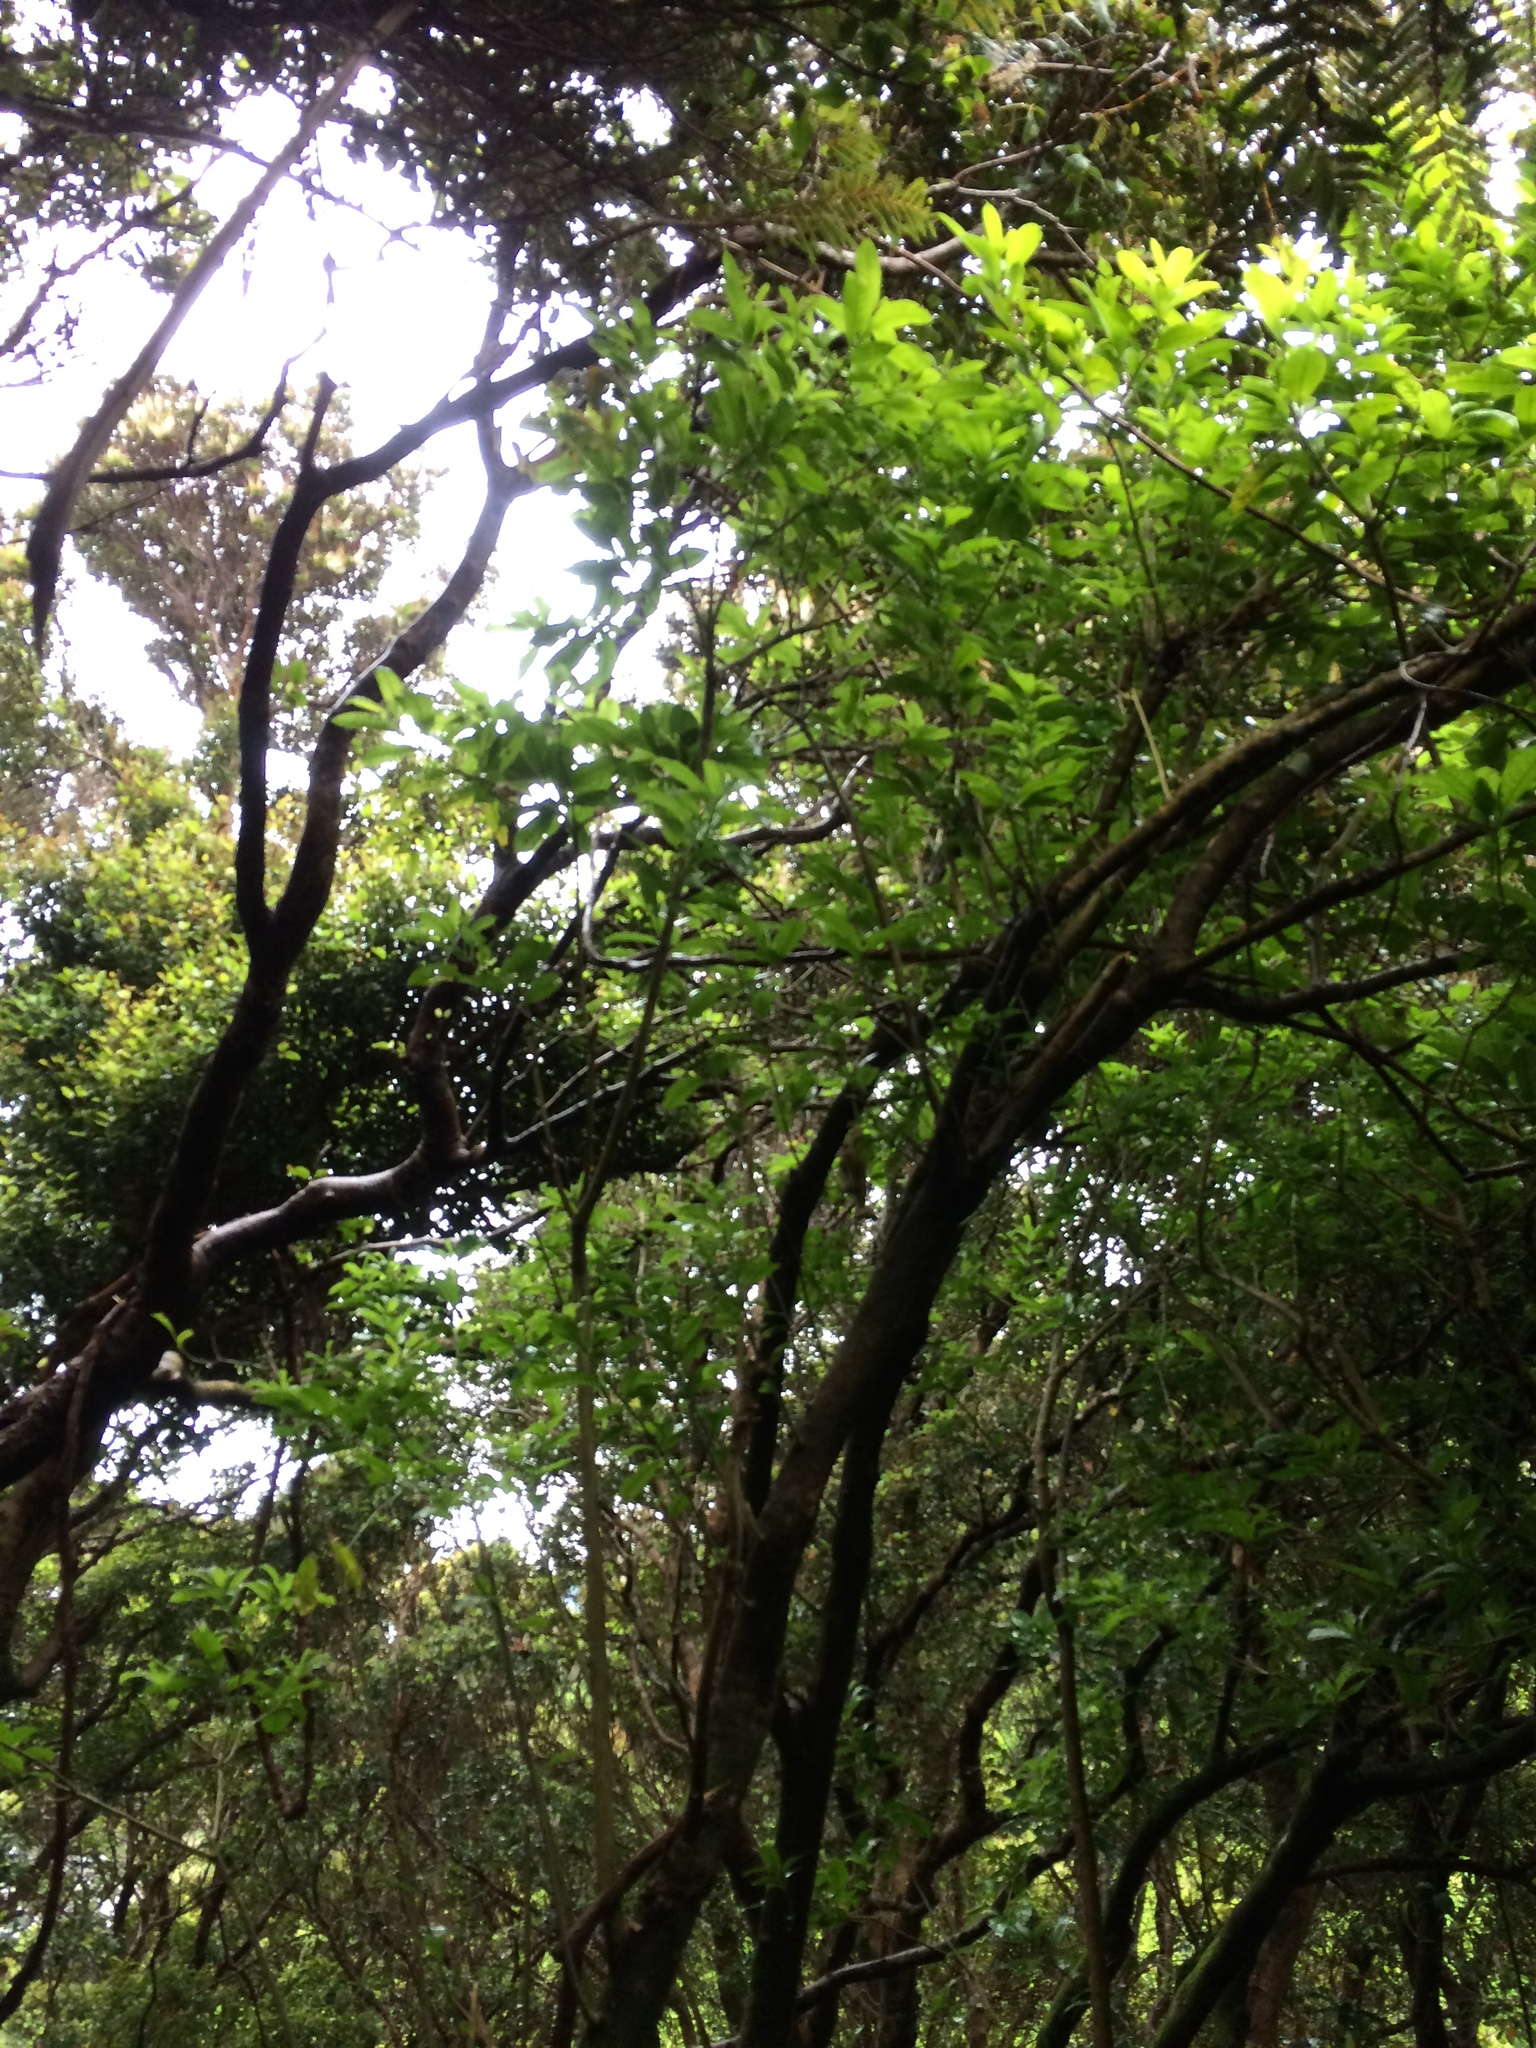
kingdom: Plantae
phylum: Tracheophyta
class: Magnoliopsida
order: Malpighiales
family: Violaceae
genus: Melicytus
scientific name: Melicytus ramiflorus
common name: Mahoe
